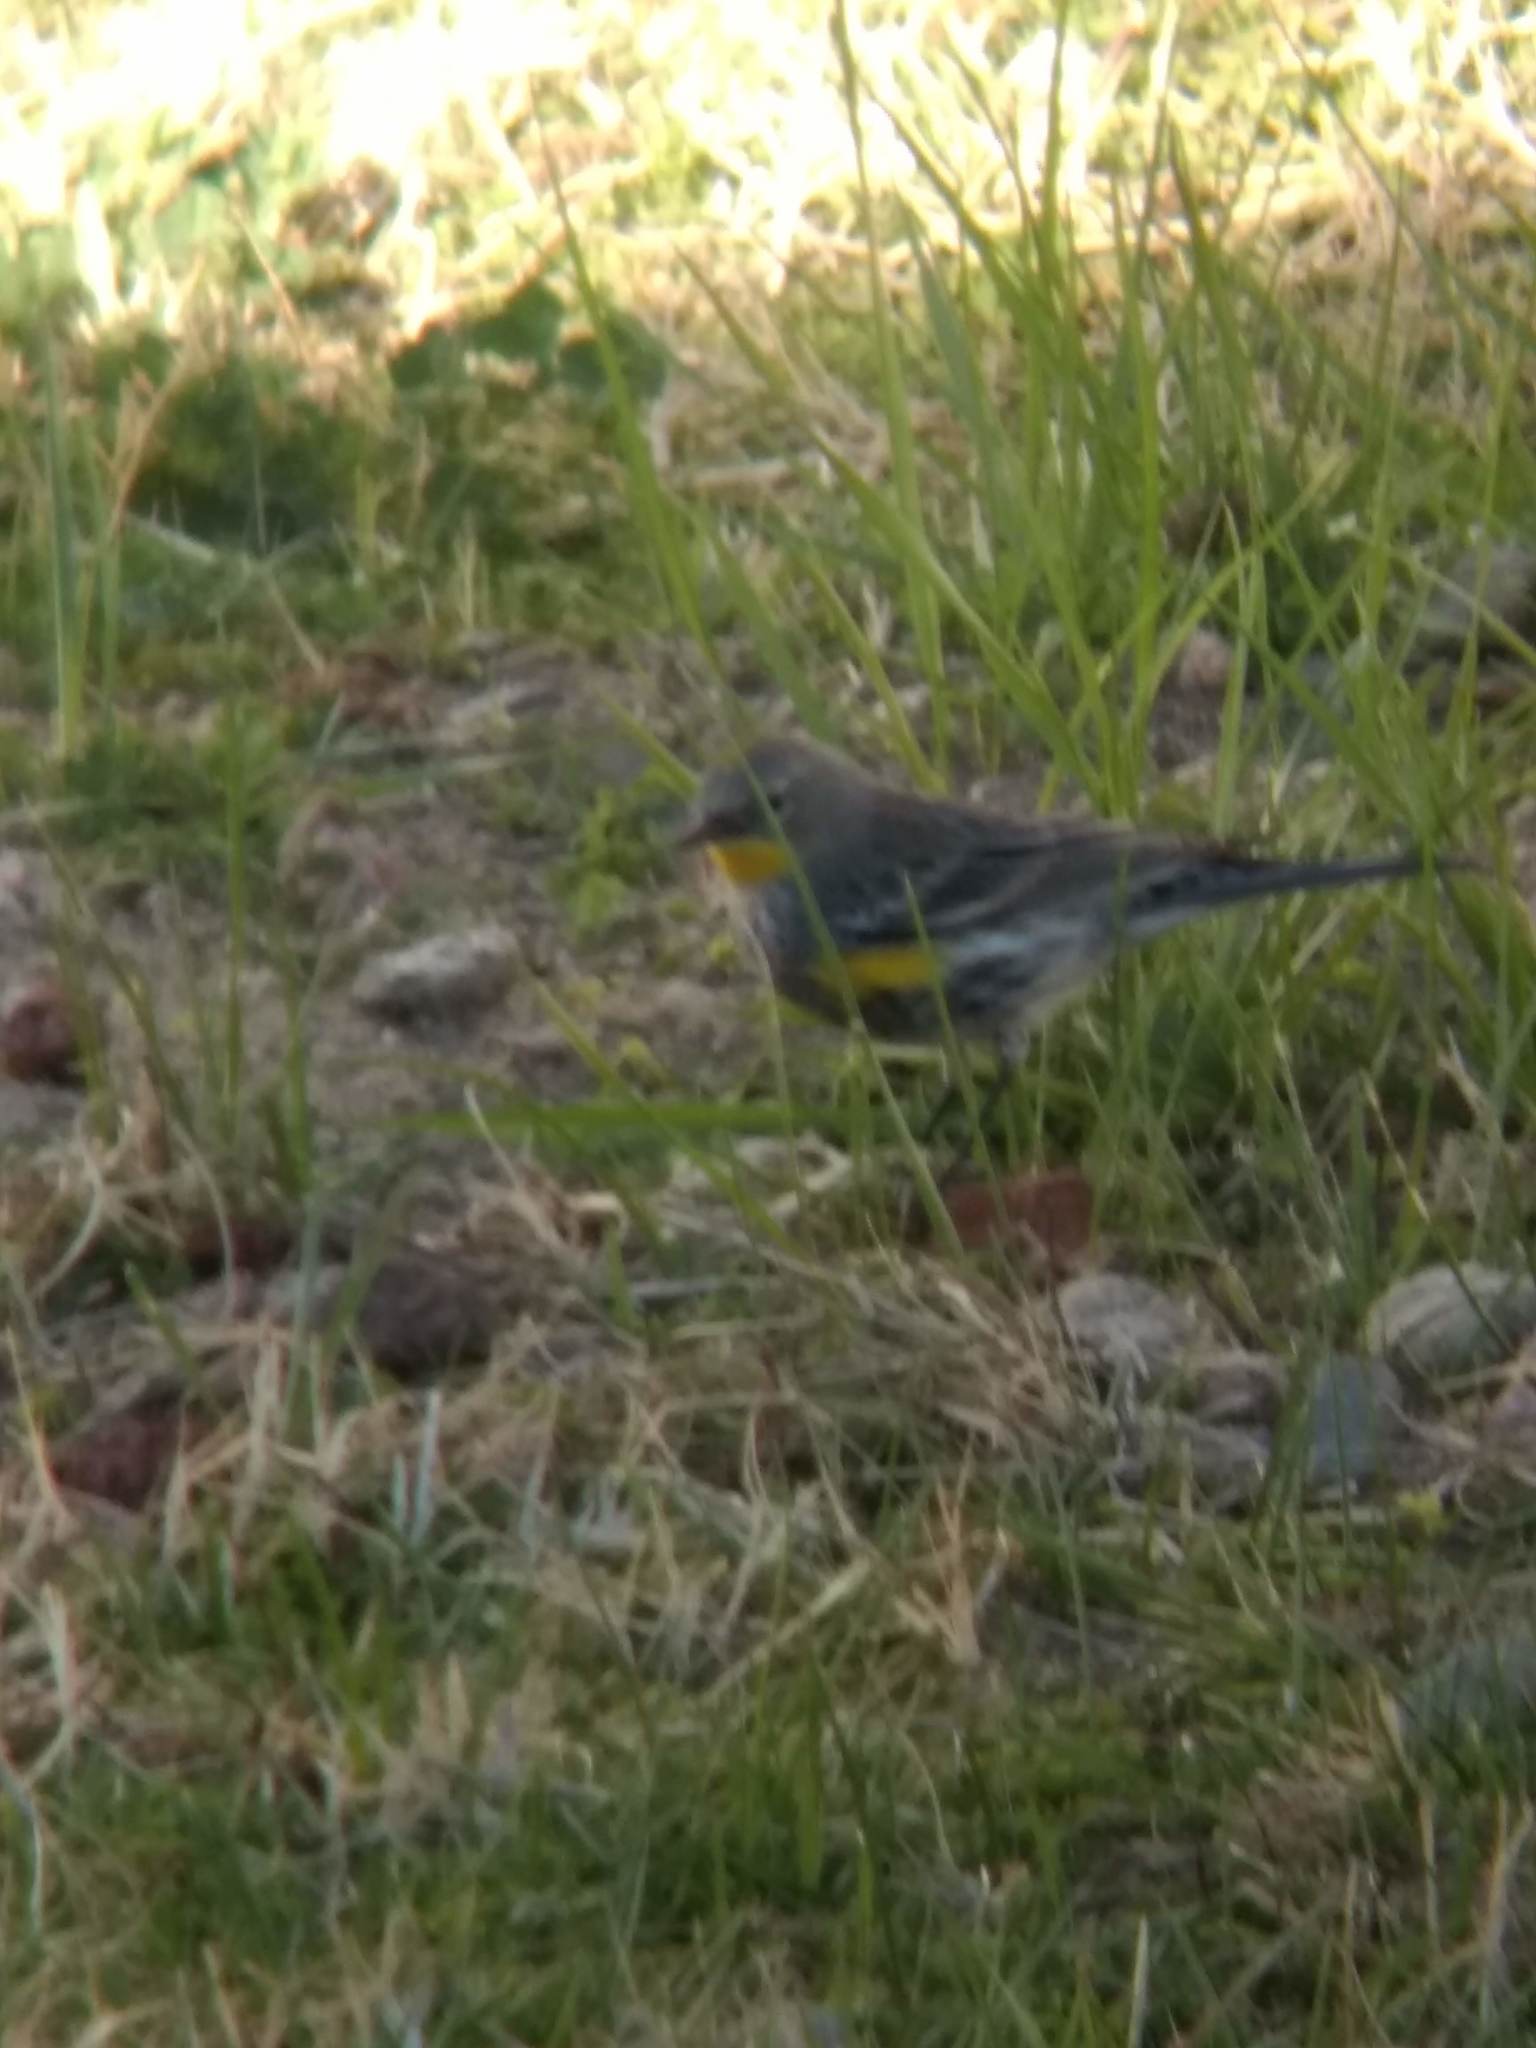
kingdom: Animalia
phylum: Chordata
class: Aves
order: Passeriformes
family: Parulidae
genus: Setophaga
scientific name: Setophaga coronata
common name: Myrtle warbler
